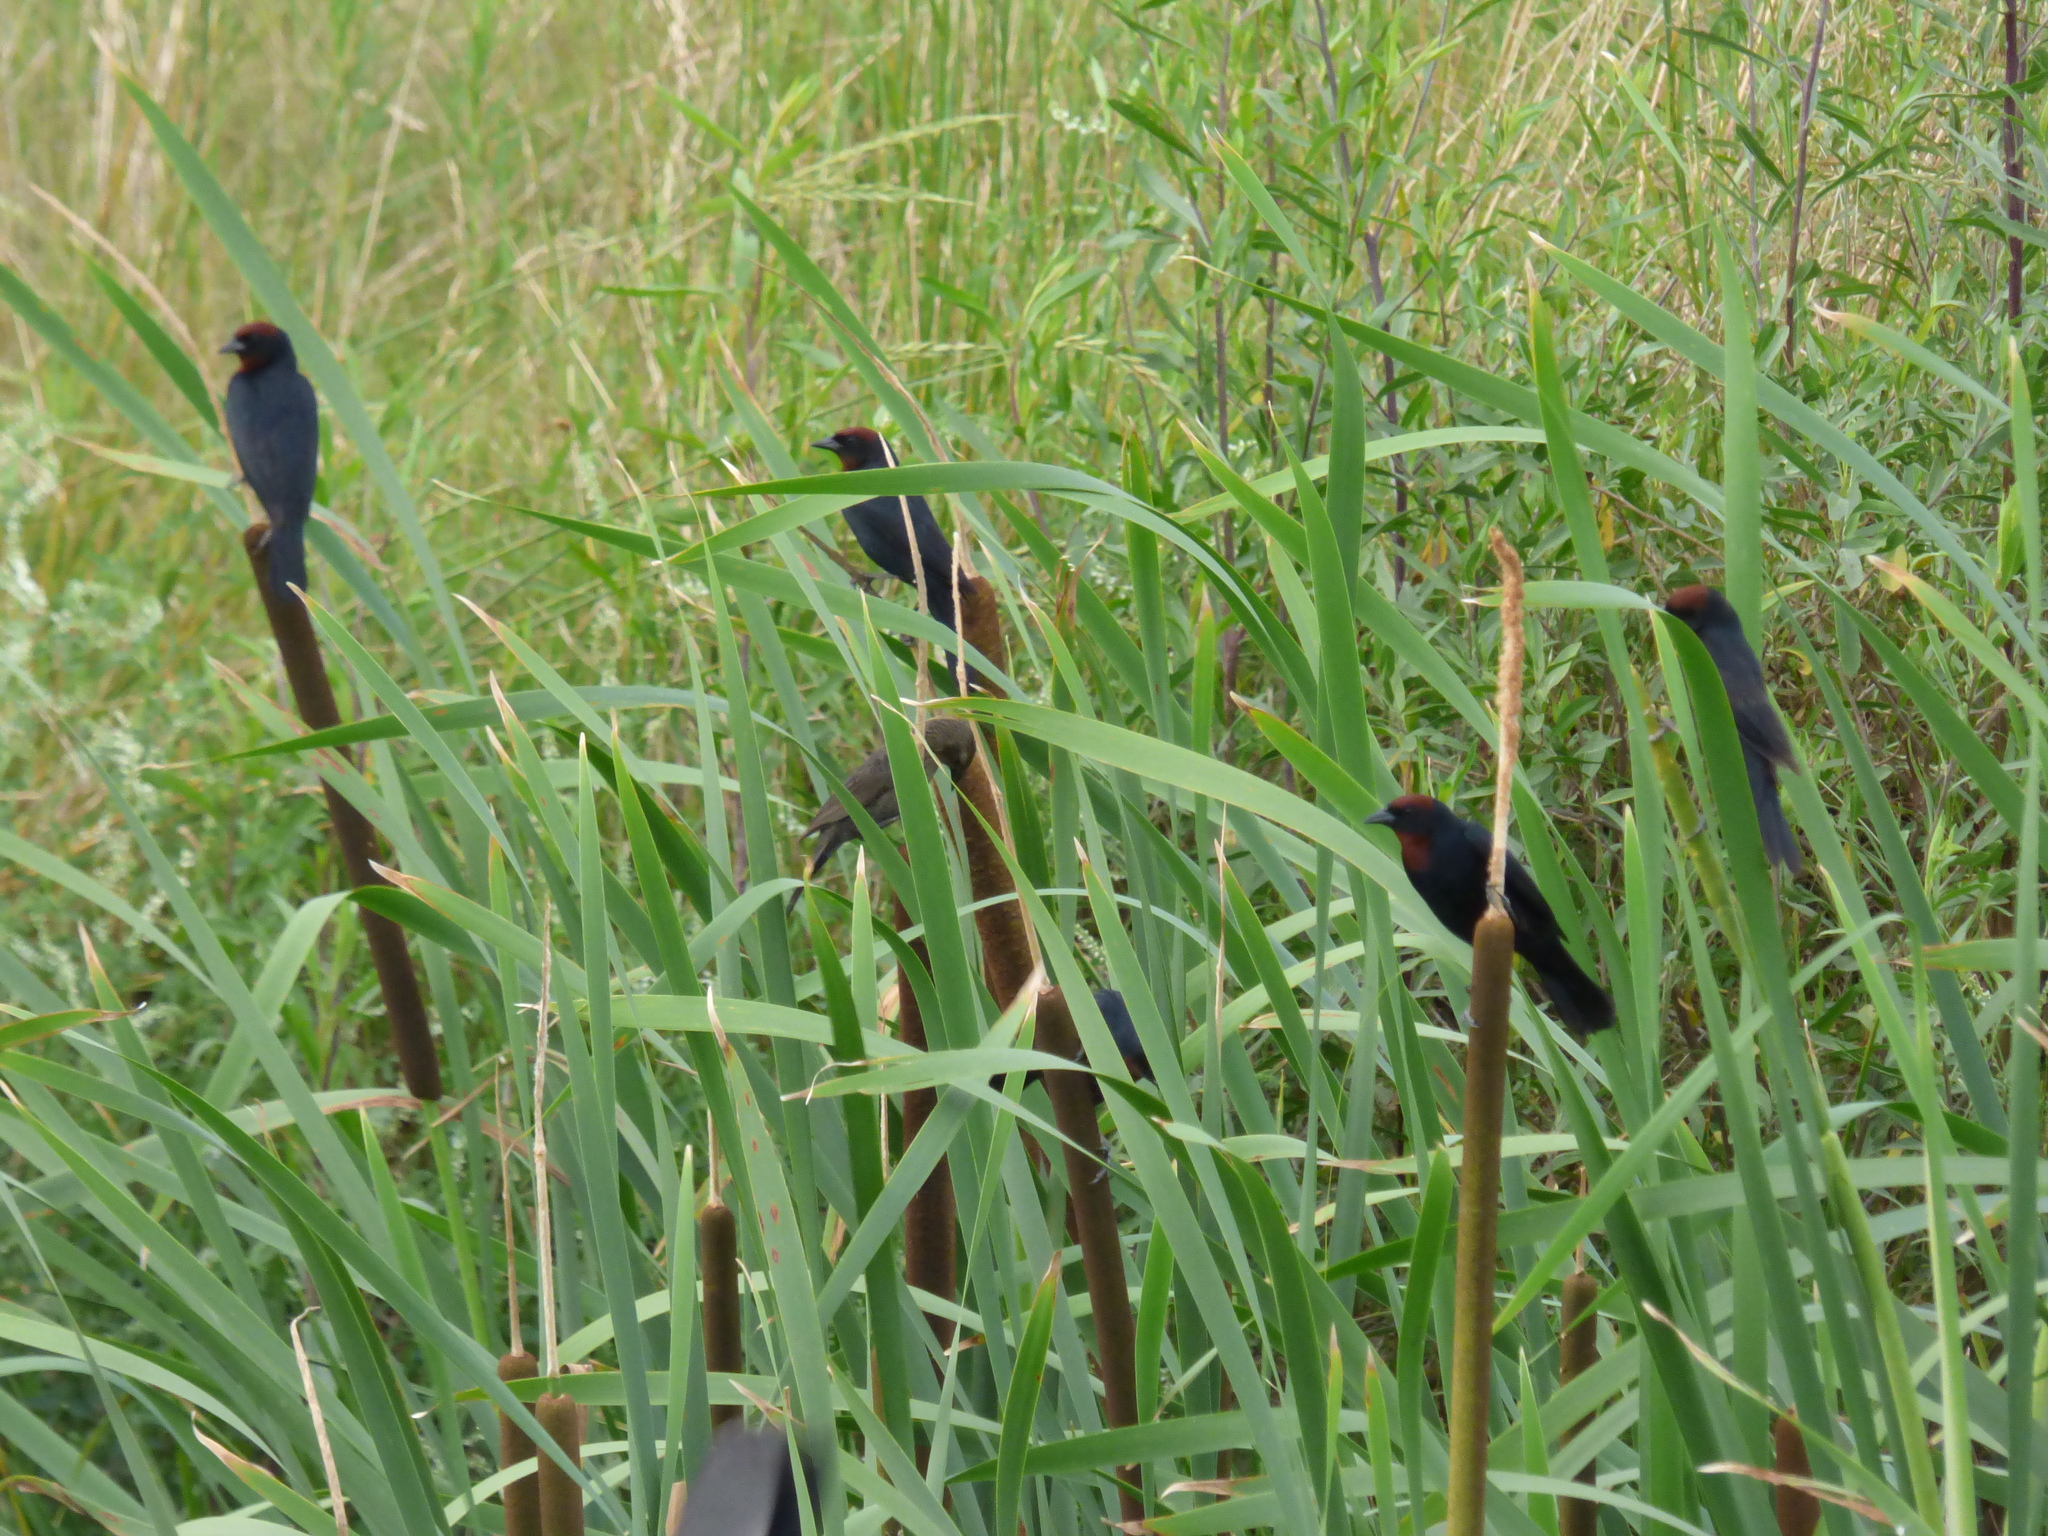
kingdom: Animalia
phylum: Chordata
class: Aves
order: Passeriformes
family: Icteridae
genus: Chrysomus
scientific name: Chrysomus ruficapillus
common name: Chestnut-capped blackbird
